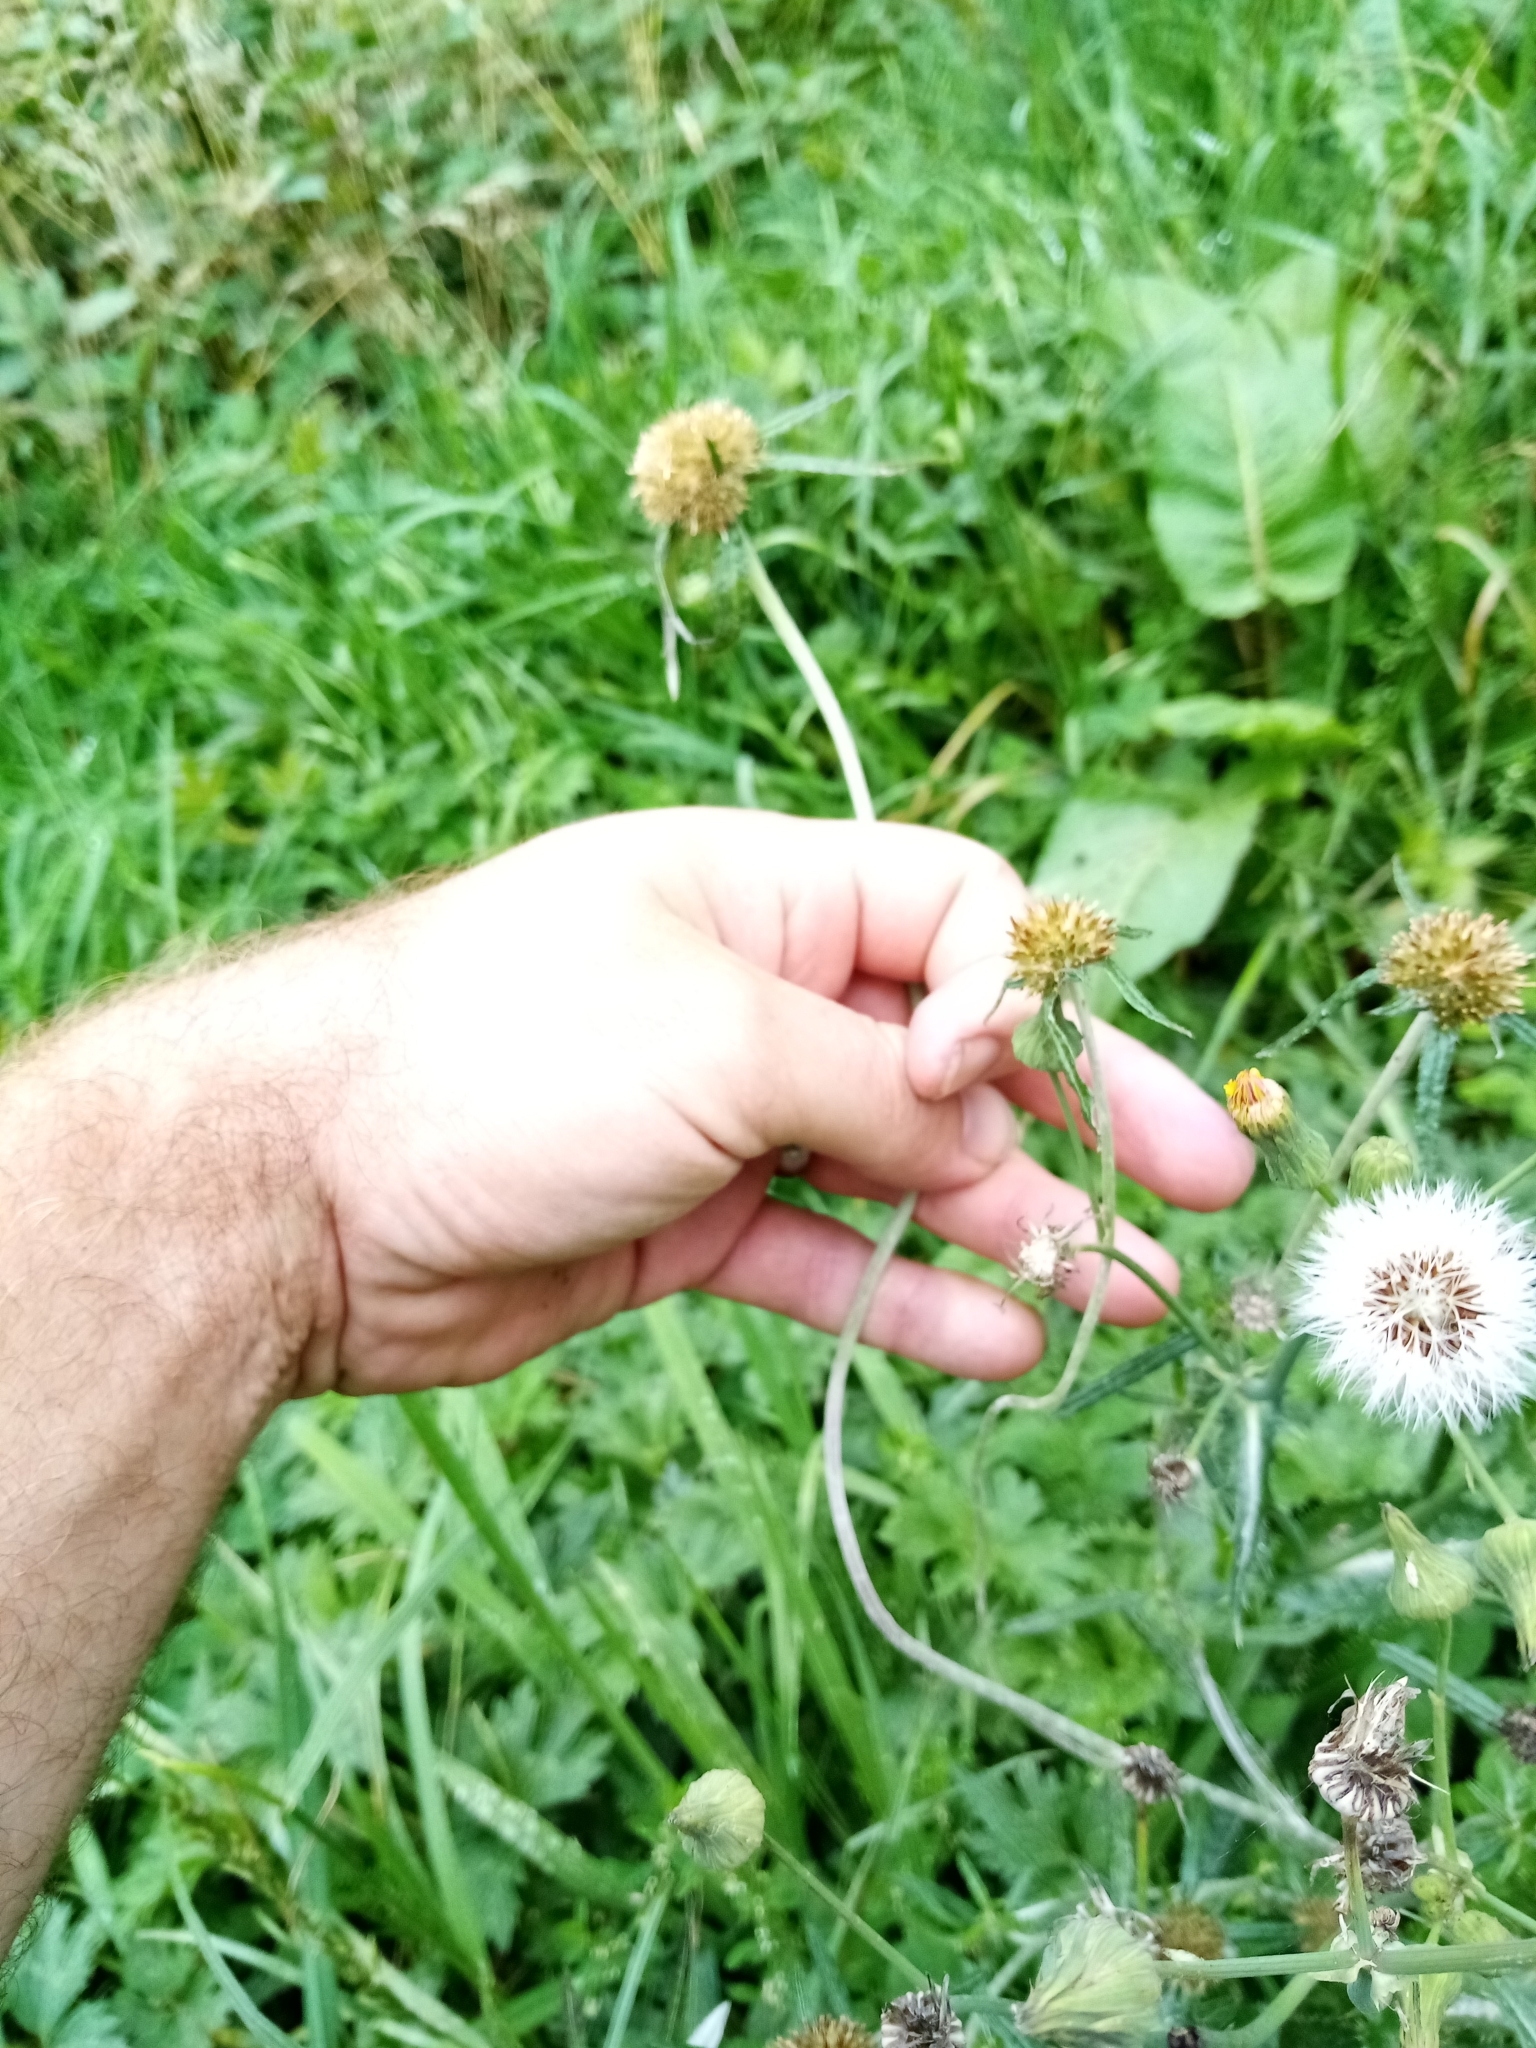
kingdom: Plantae
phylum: Tracheophyta
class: Magnoliopsida
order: Asterales
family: Asteraceae
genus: Euchiton
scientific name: Euchiton sphaericus
